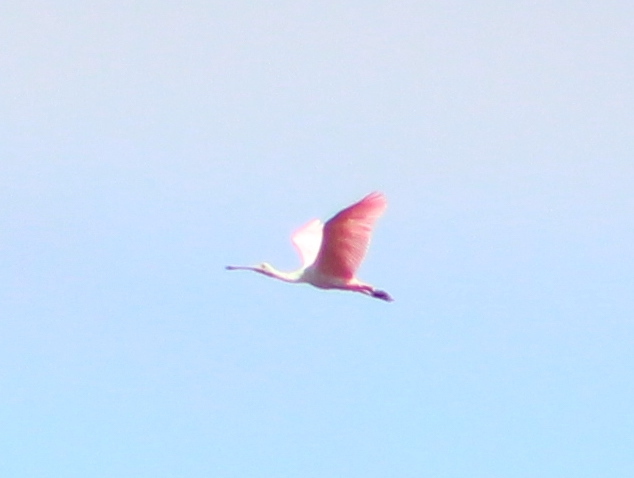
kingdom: Animalia
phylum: Chordata
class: Aves
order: Pelecaniformes
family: Threskiornithidae
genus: Platalea
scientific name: Platalea ajaja
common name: Roseate spoonbill
